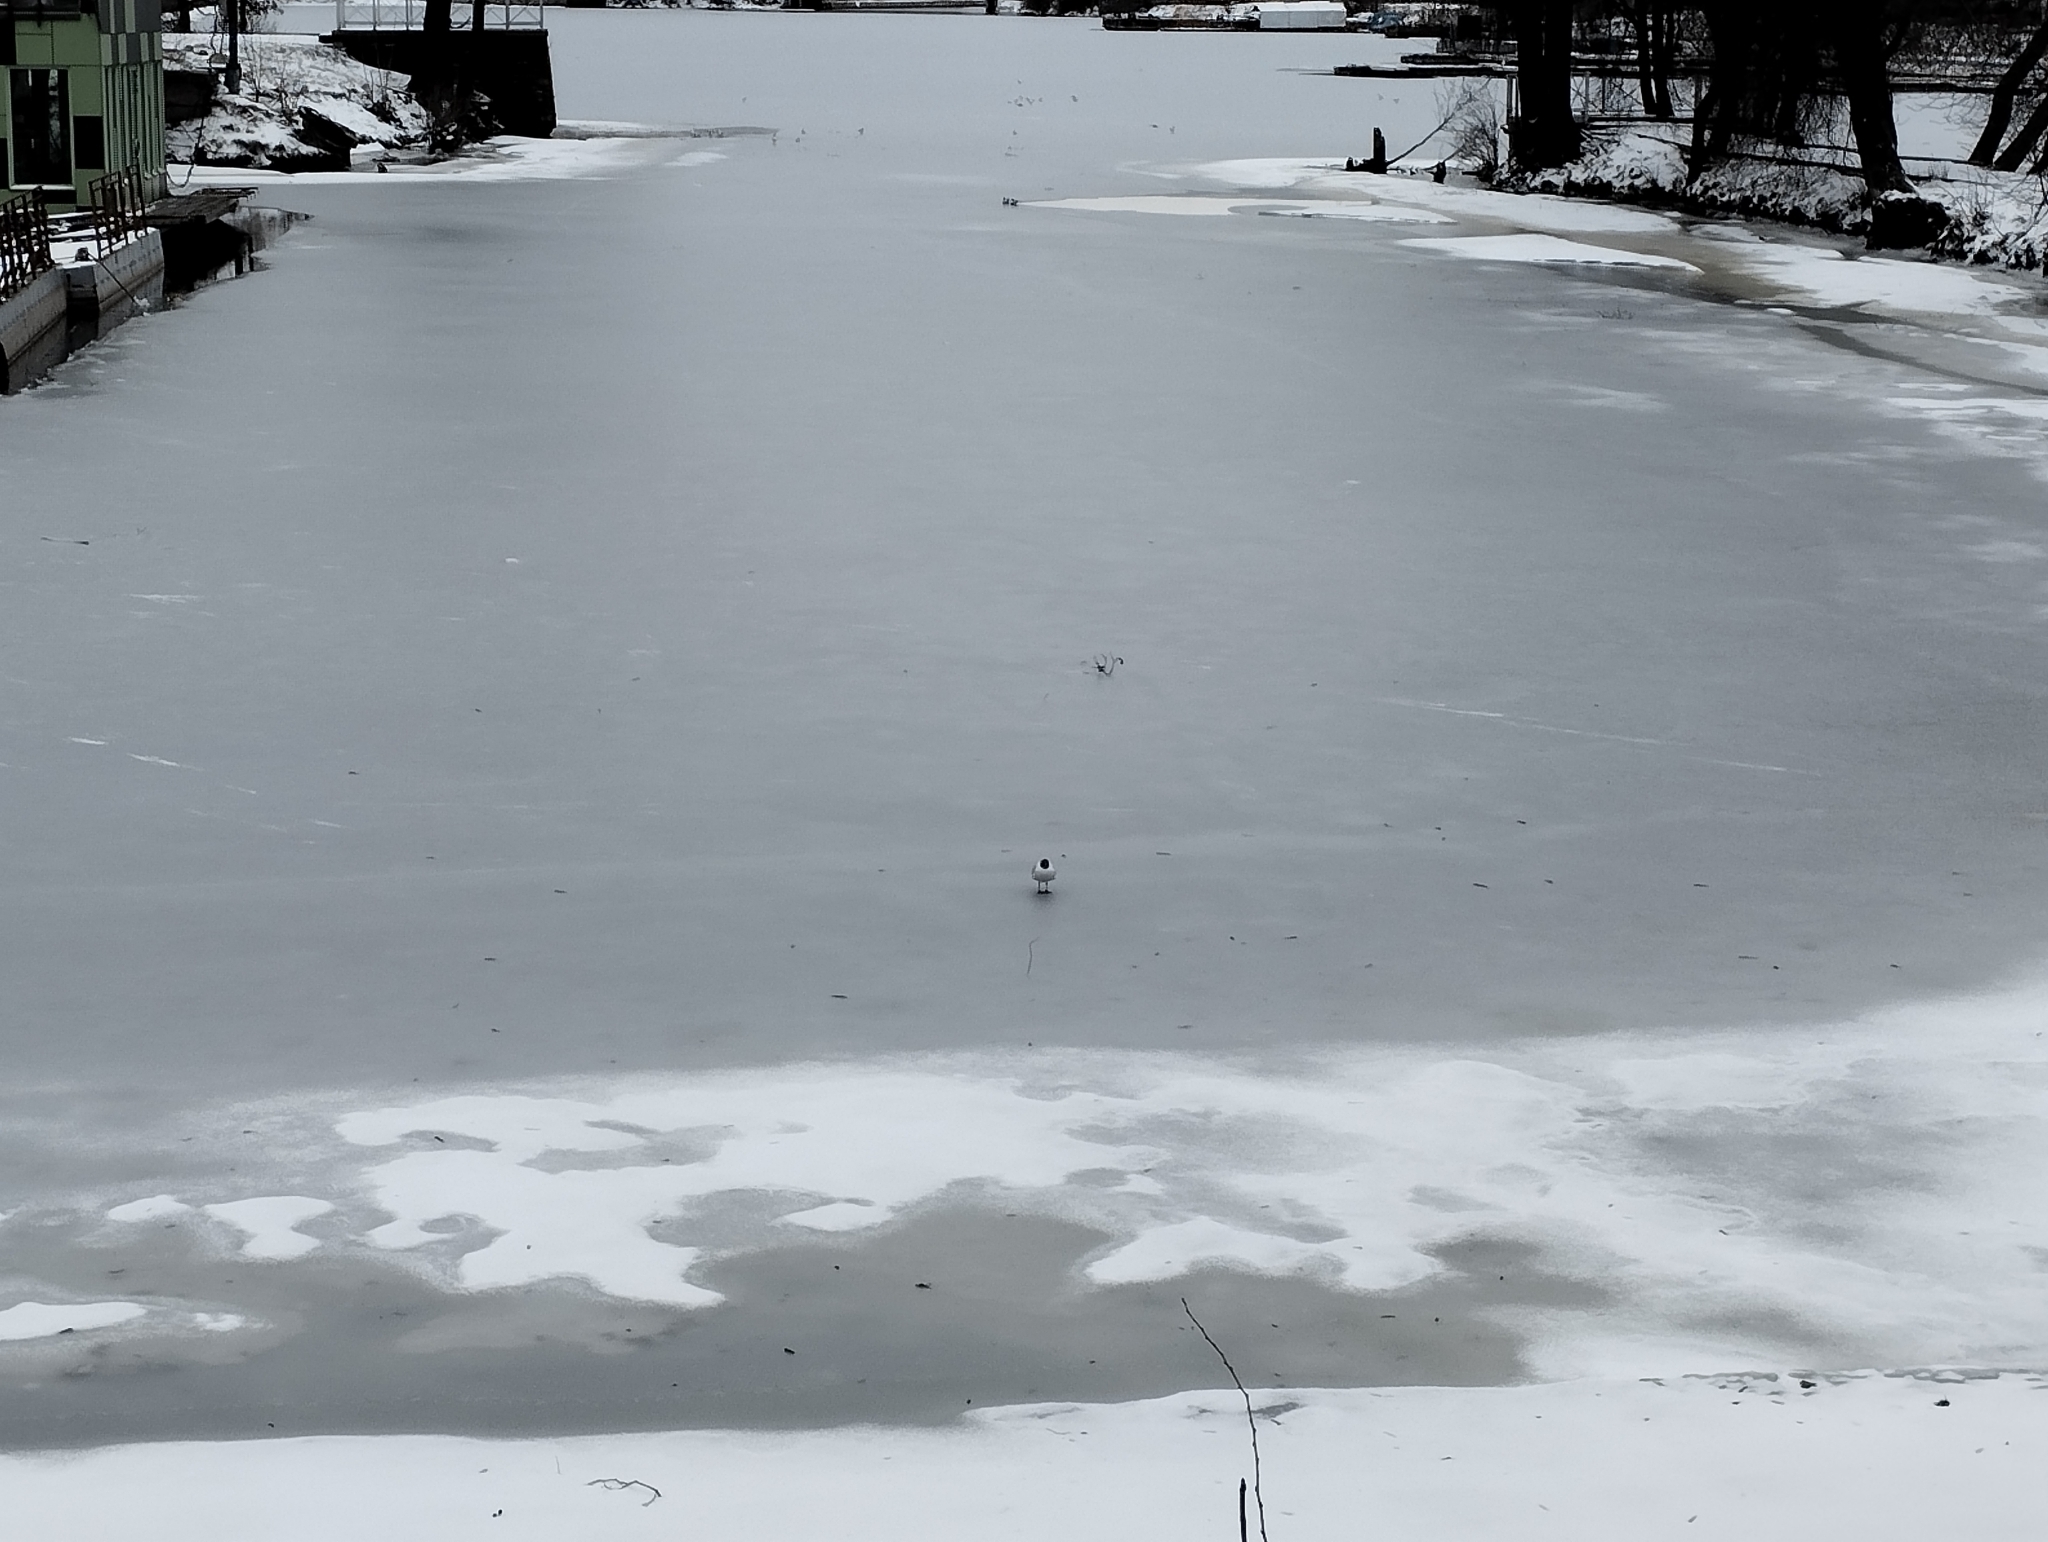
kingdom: Animalia
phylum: Chordata
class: Aves
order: Charadriiformes
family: Laridae
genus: Chroicocephalus
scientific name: Chroicocephalus ridibundus
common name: Black-headed gull
